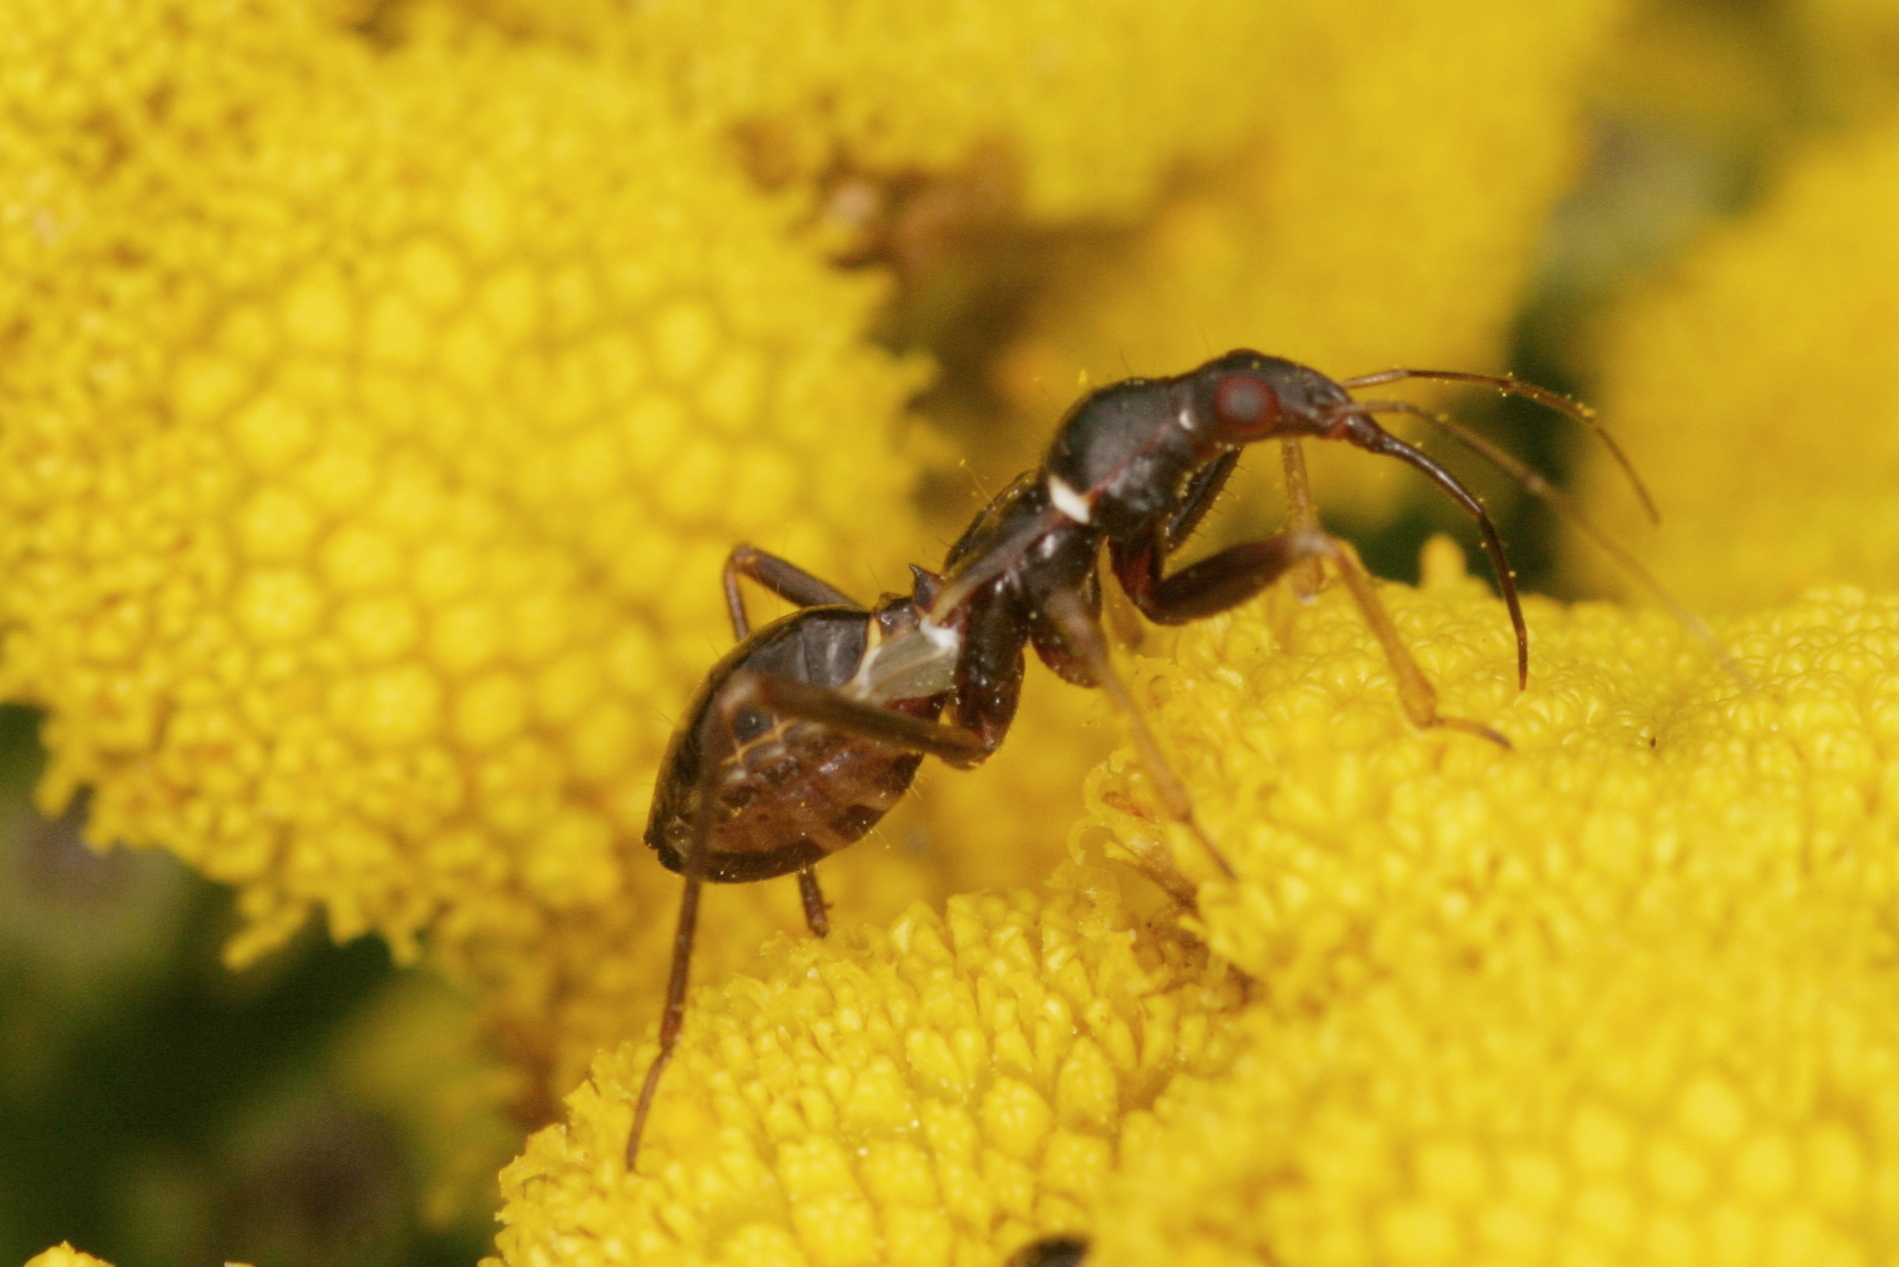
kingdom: Animalia
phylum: Arthropoda
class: Insecta
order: Hemiptera
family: Nabidae
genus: Himacerus
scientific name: Himacerus mirmicoides
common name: Ant damsel bug
